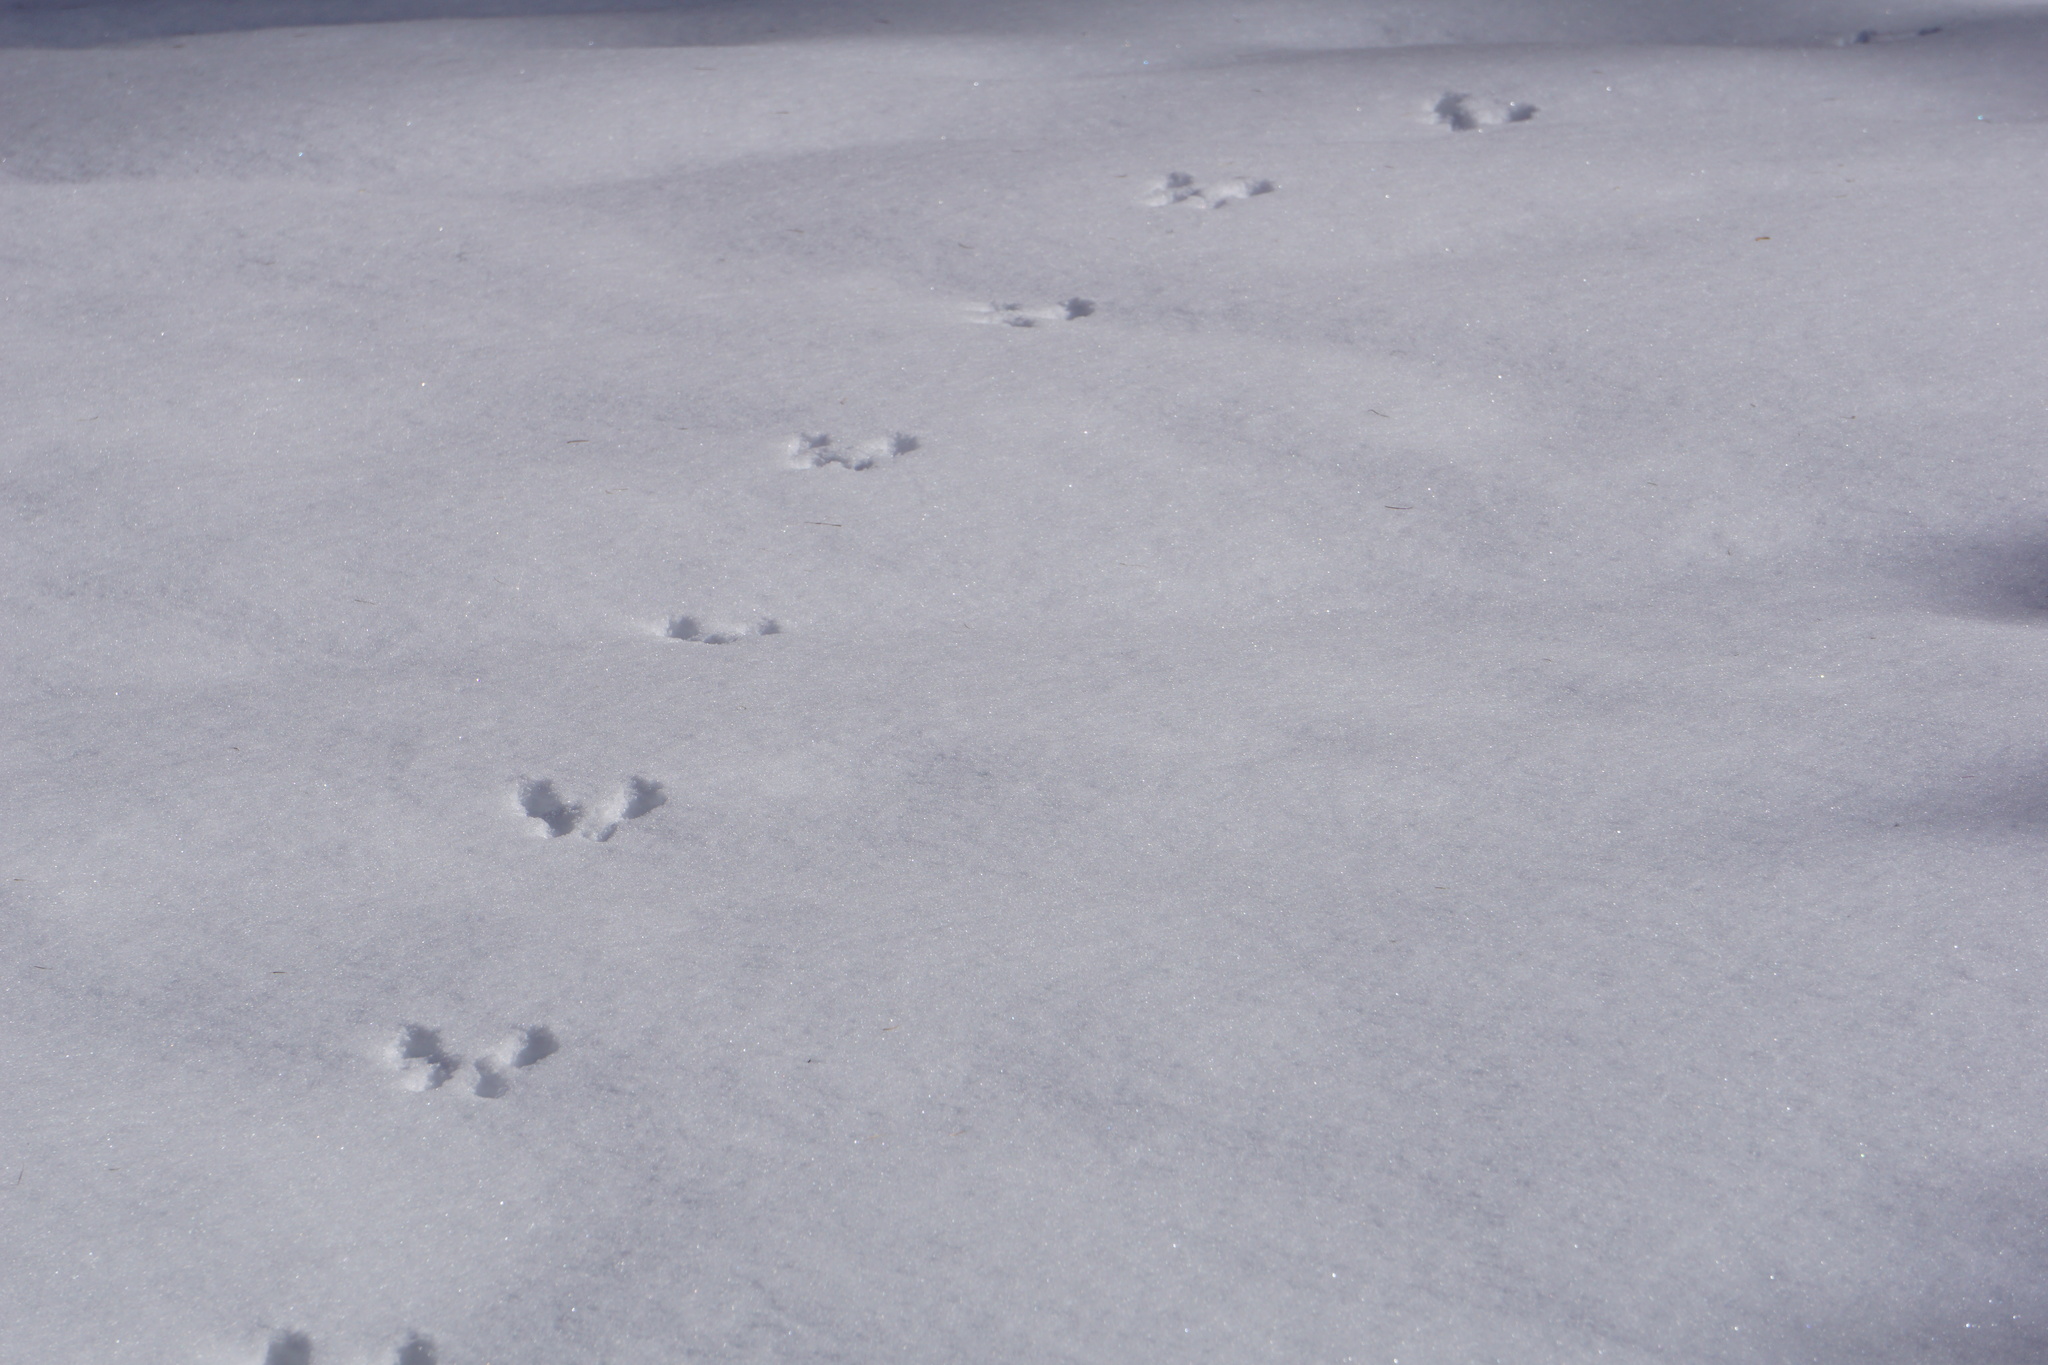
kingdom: Animalia
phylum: Chordata
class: Mammalia
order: Rodentia
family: Sciuridae
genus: Sciurus
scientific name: Sciurus vulgaris
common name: Eurasian red squirrel
